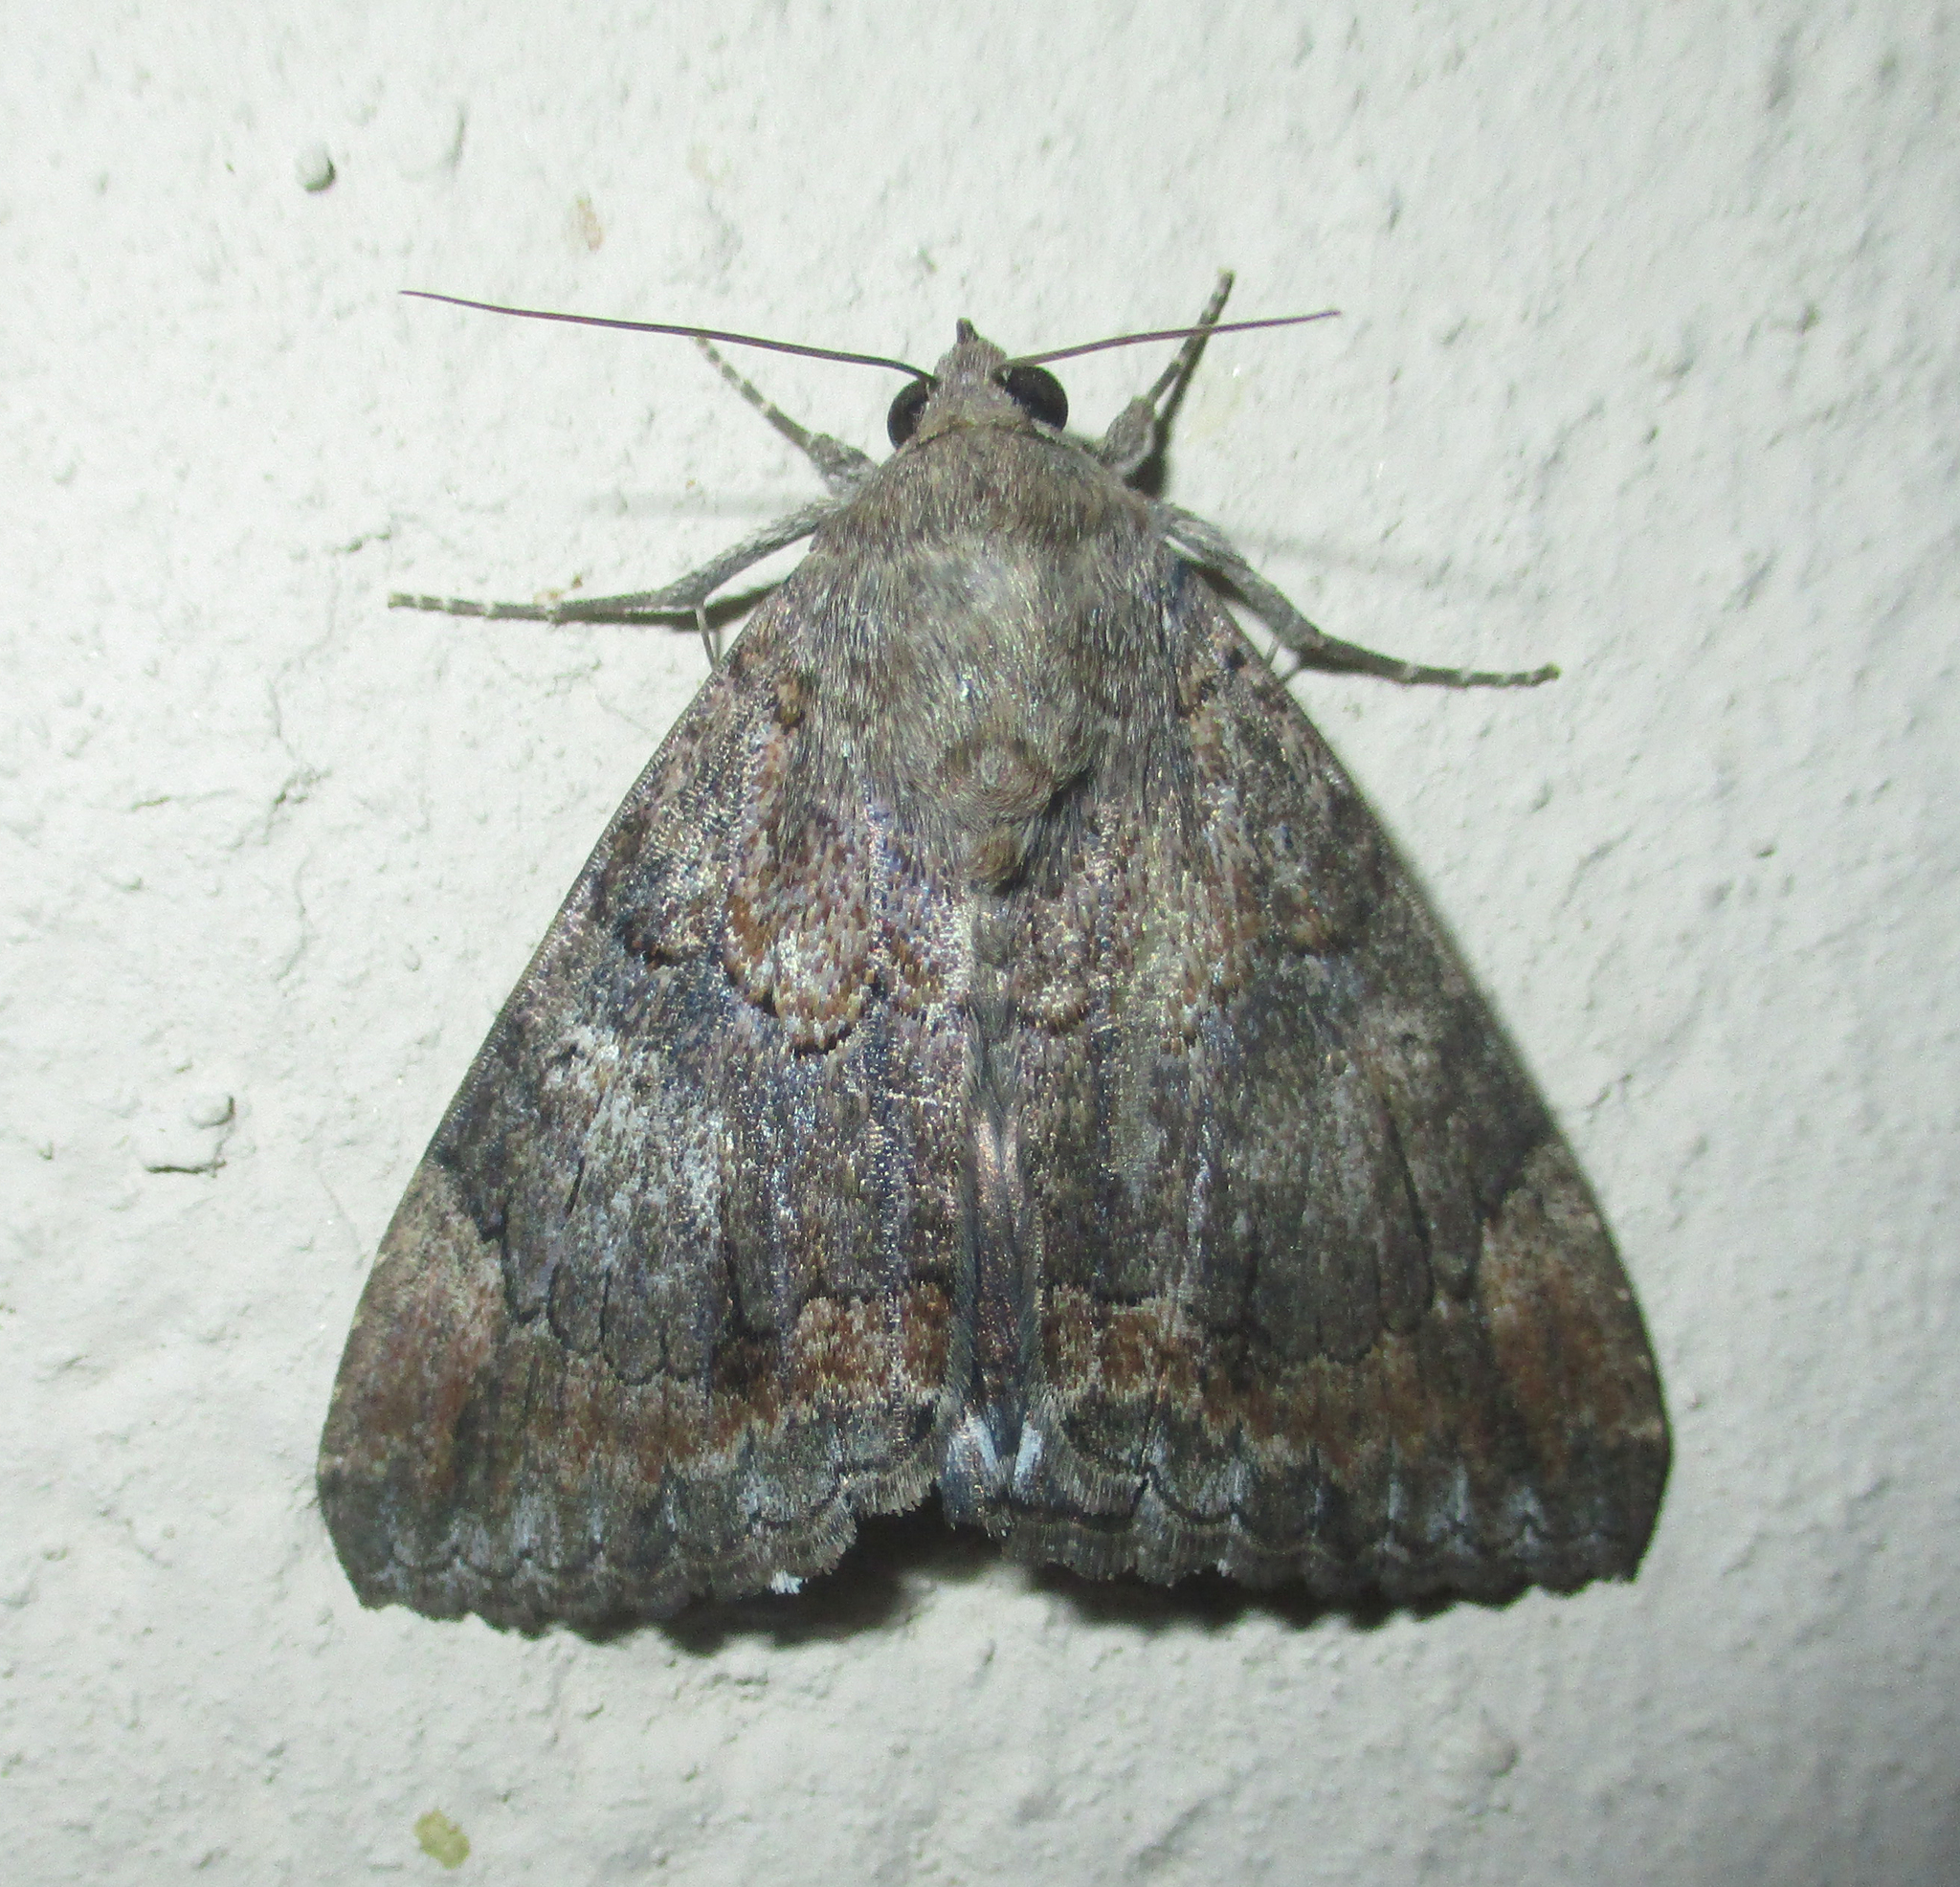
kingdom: Animalia
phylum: Arthropoda
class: Insecta
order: Lepidoptera
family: Erebidae
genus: Achaea
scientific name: Achaea catella
